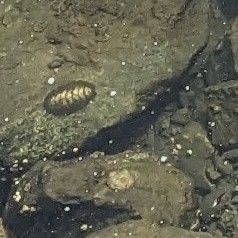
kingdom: Animalia
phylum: Mollusca
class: Polyplacophora
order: Chitonida
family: Mopaliidae
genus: Mopalia
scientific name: Mopalia muscosa
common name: Mossy chiton
